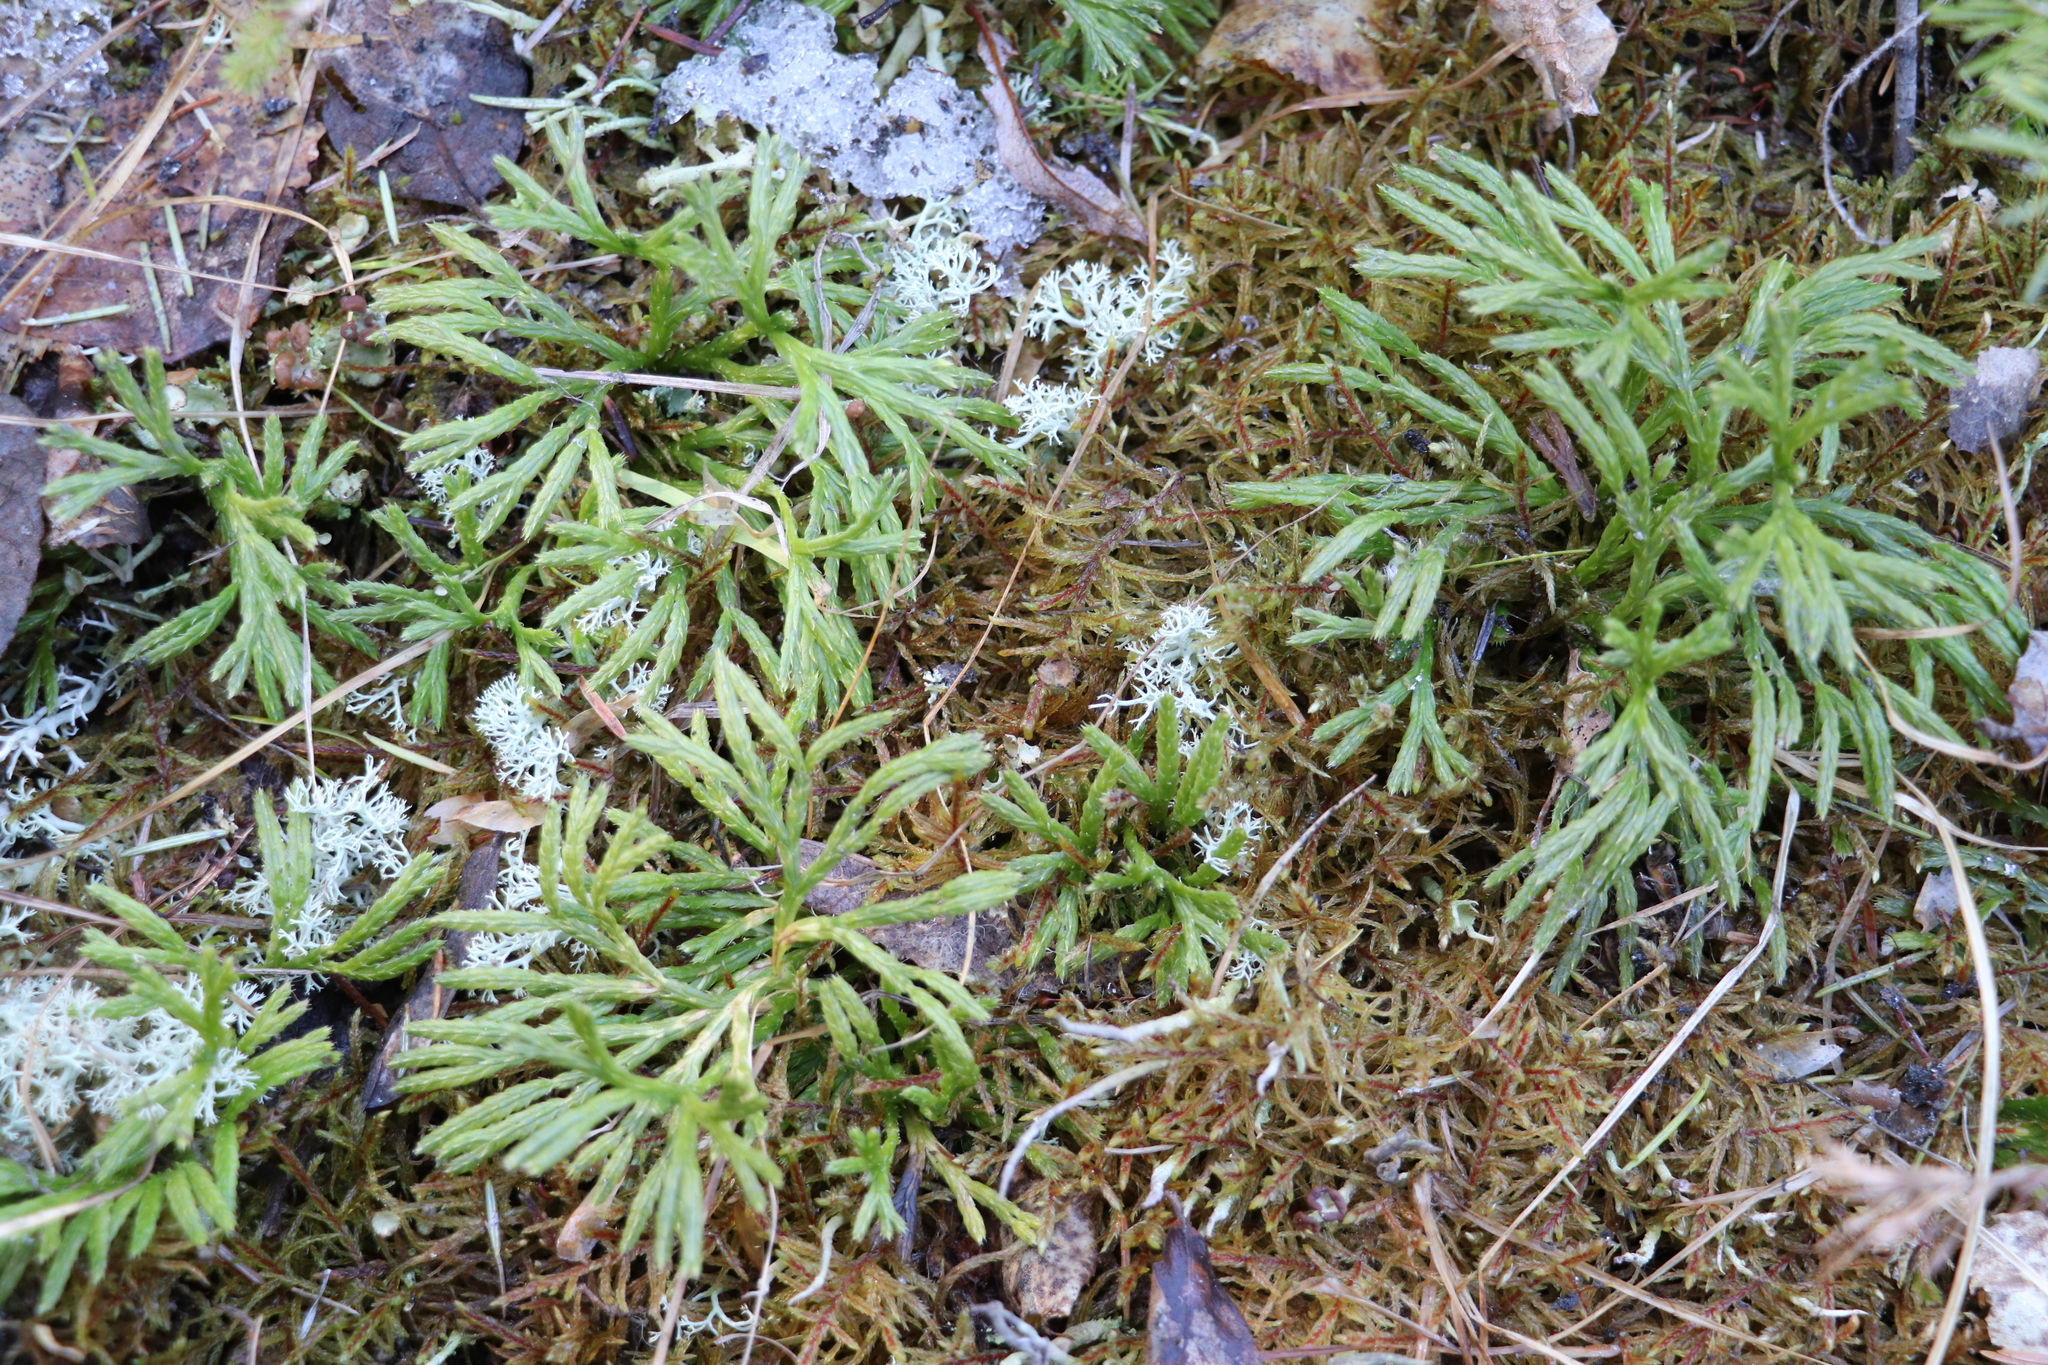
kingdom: Plantae
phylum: Tracheophyta
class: Lycopodiopsida
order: Lycopodiales
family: Lycopodiaceae
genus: Diphasiastrum
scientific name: Diphasiastrum complanatum
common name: Northern running-pine
